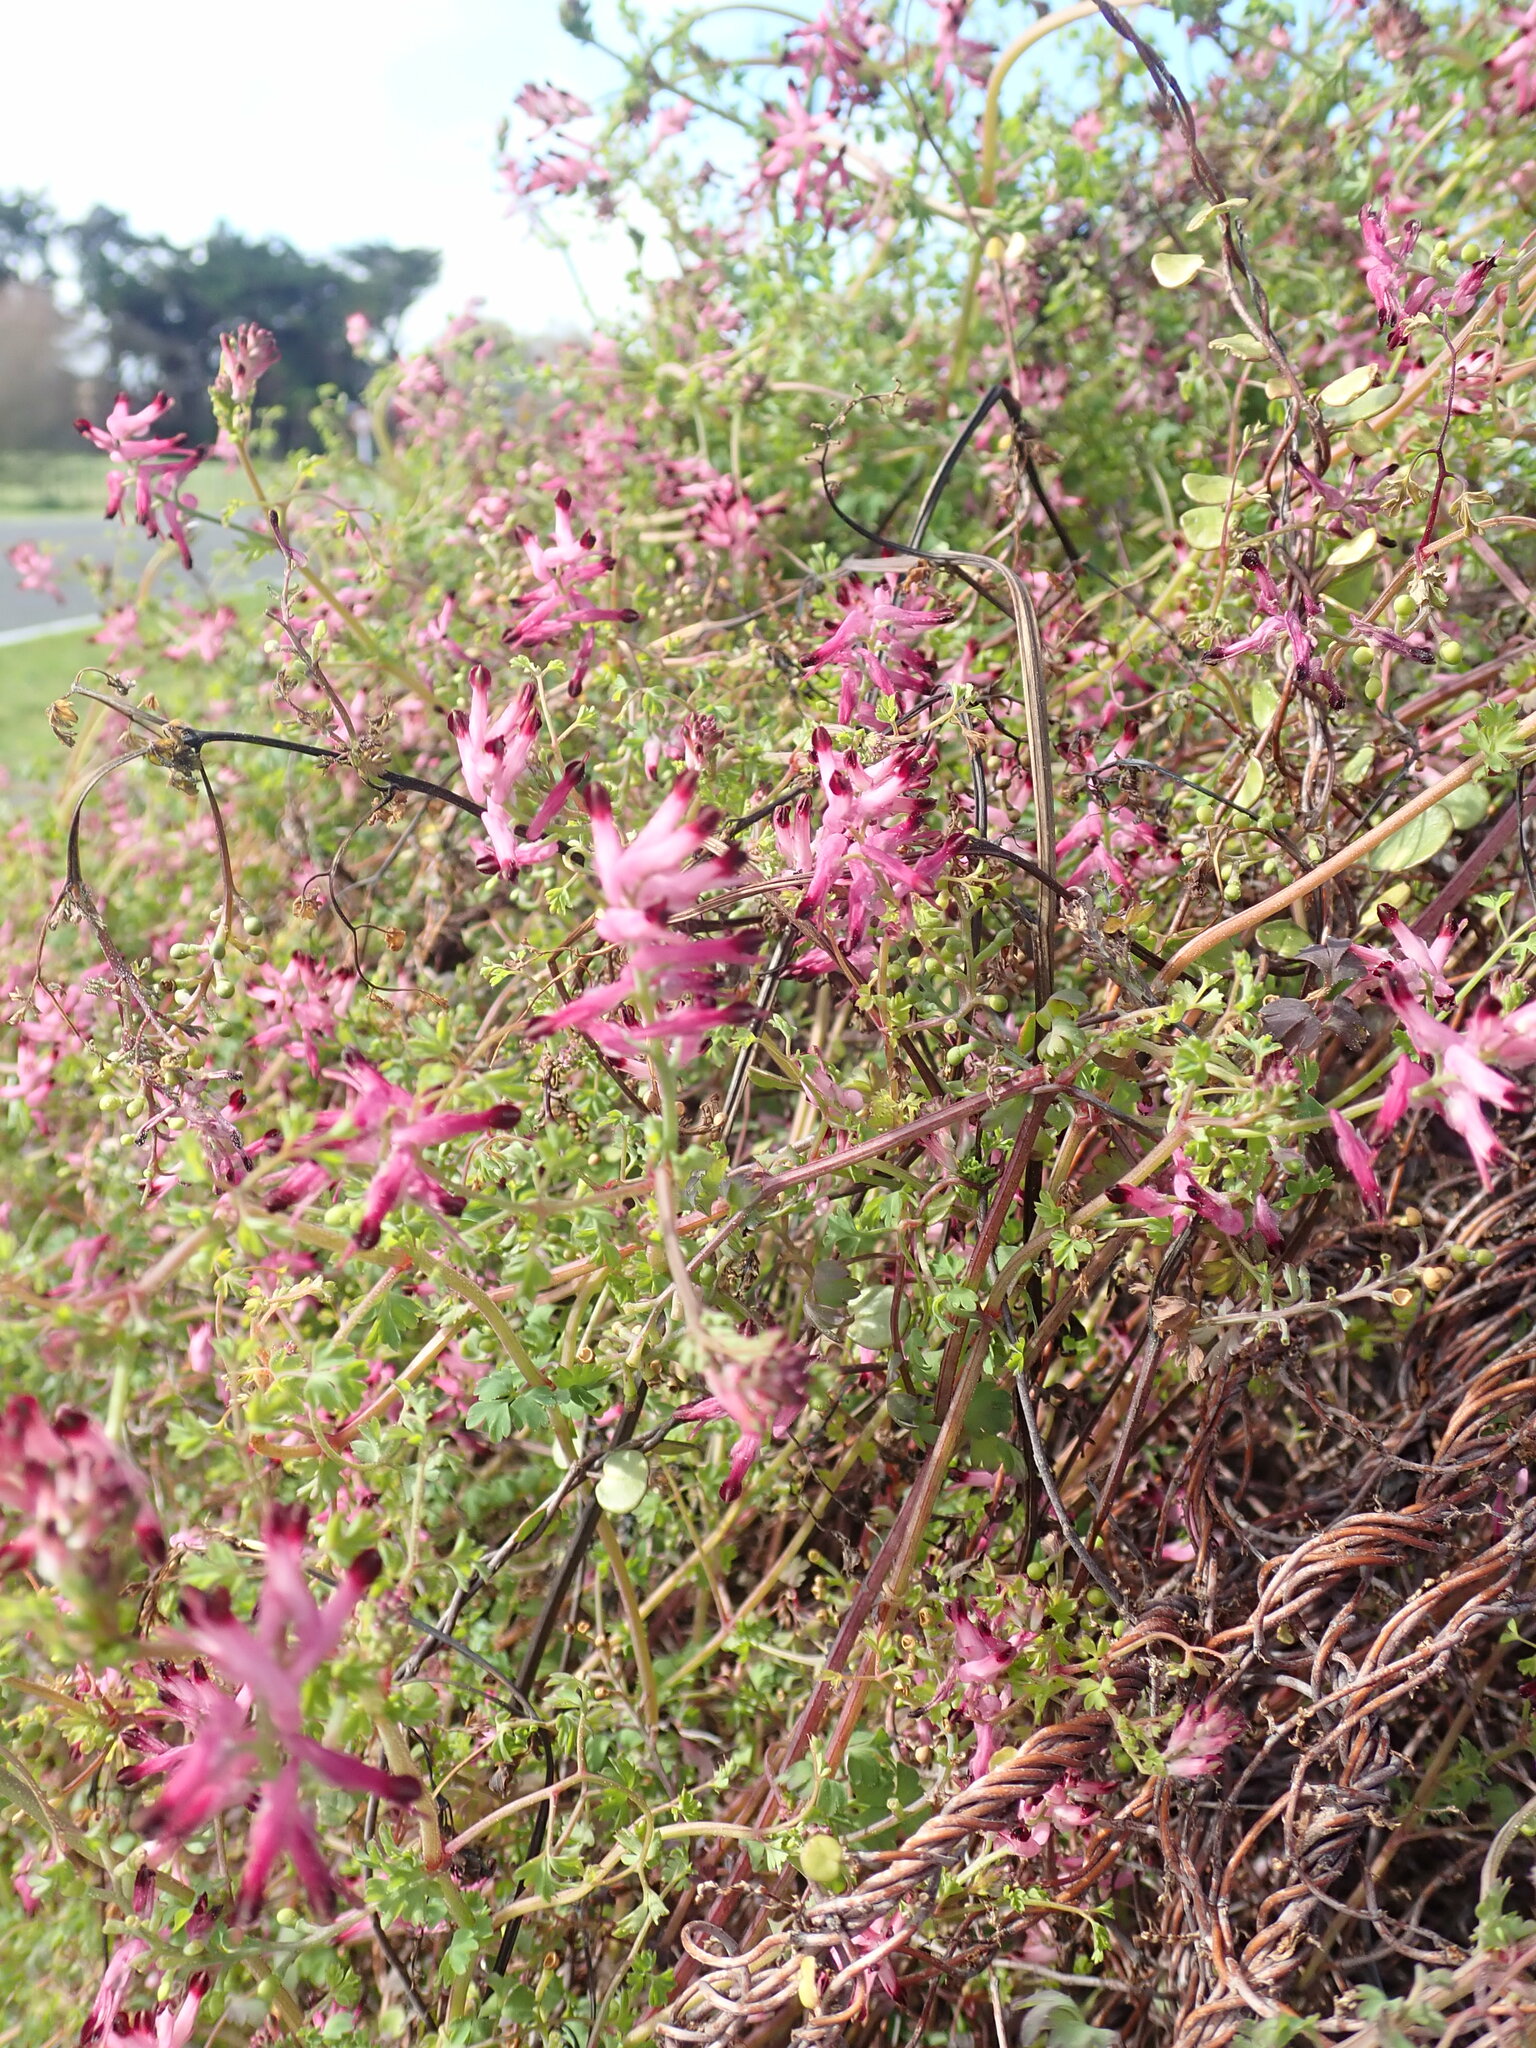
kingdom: Plantae
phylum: Tracheophyta
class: Magnoliopsida
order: Ranunculales
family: Papaveraceae
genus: Fumaria
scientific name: Fumaria muralis
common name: Common ramping-fumitory
